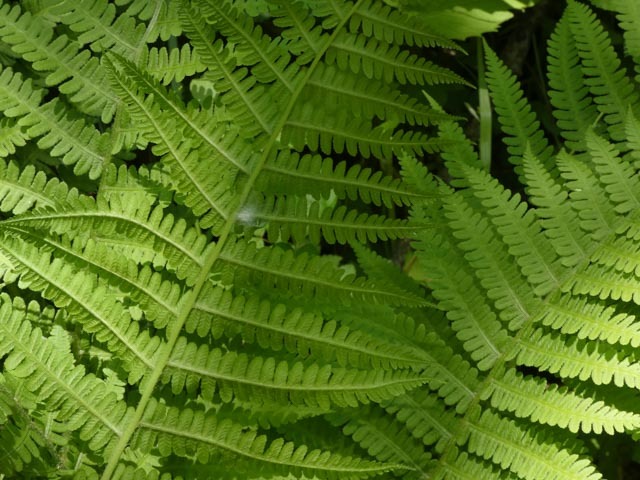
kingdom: Plantae
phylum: Tracheophyta
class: Polypodiopsida
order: Polypodiales
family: Athyriaceae
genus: Deparia
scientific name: Deparia acrostichoides
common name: Silver false spleenwort
